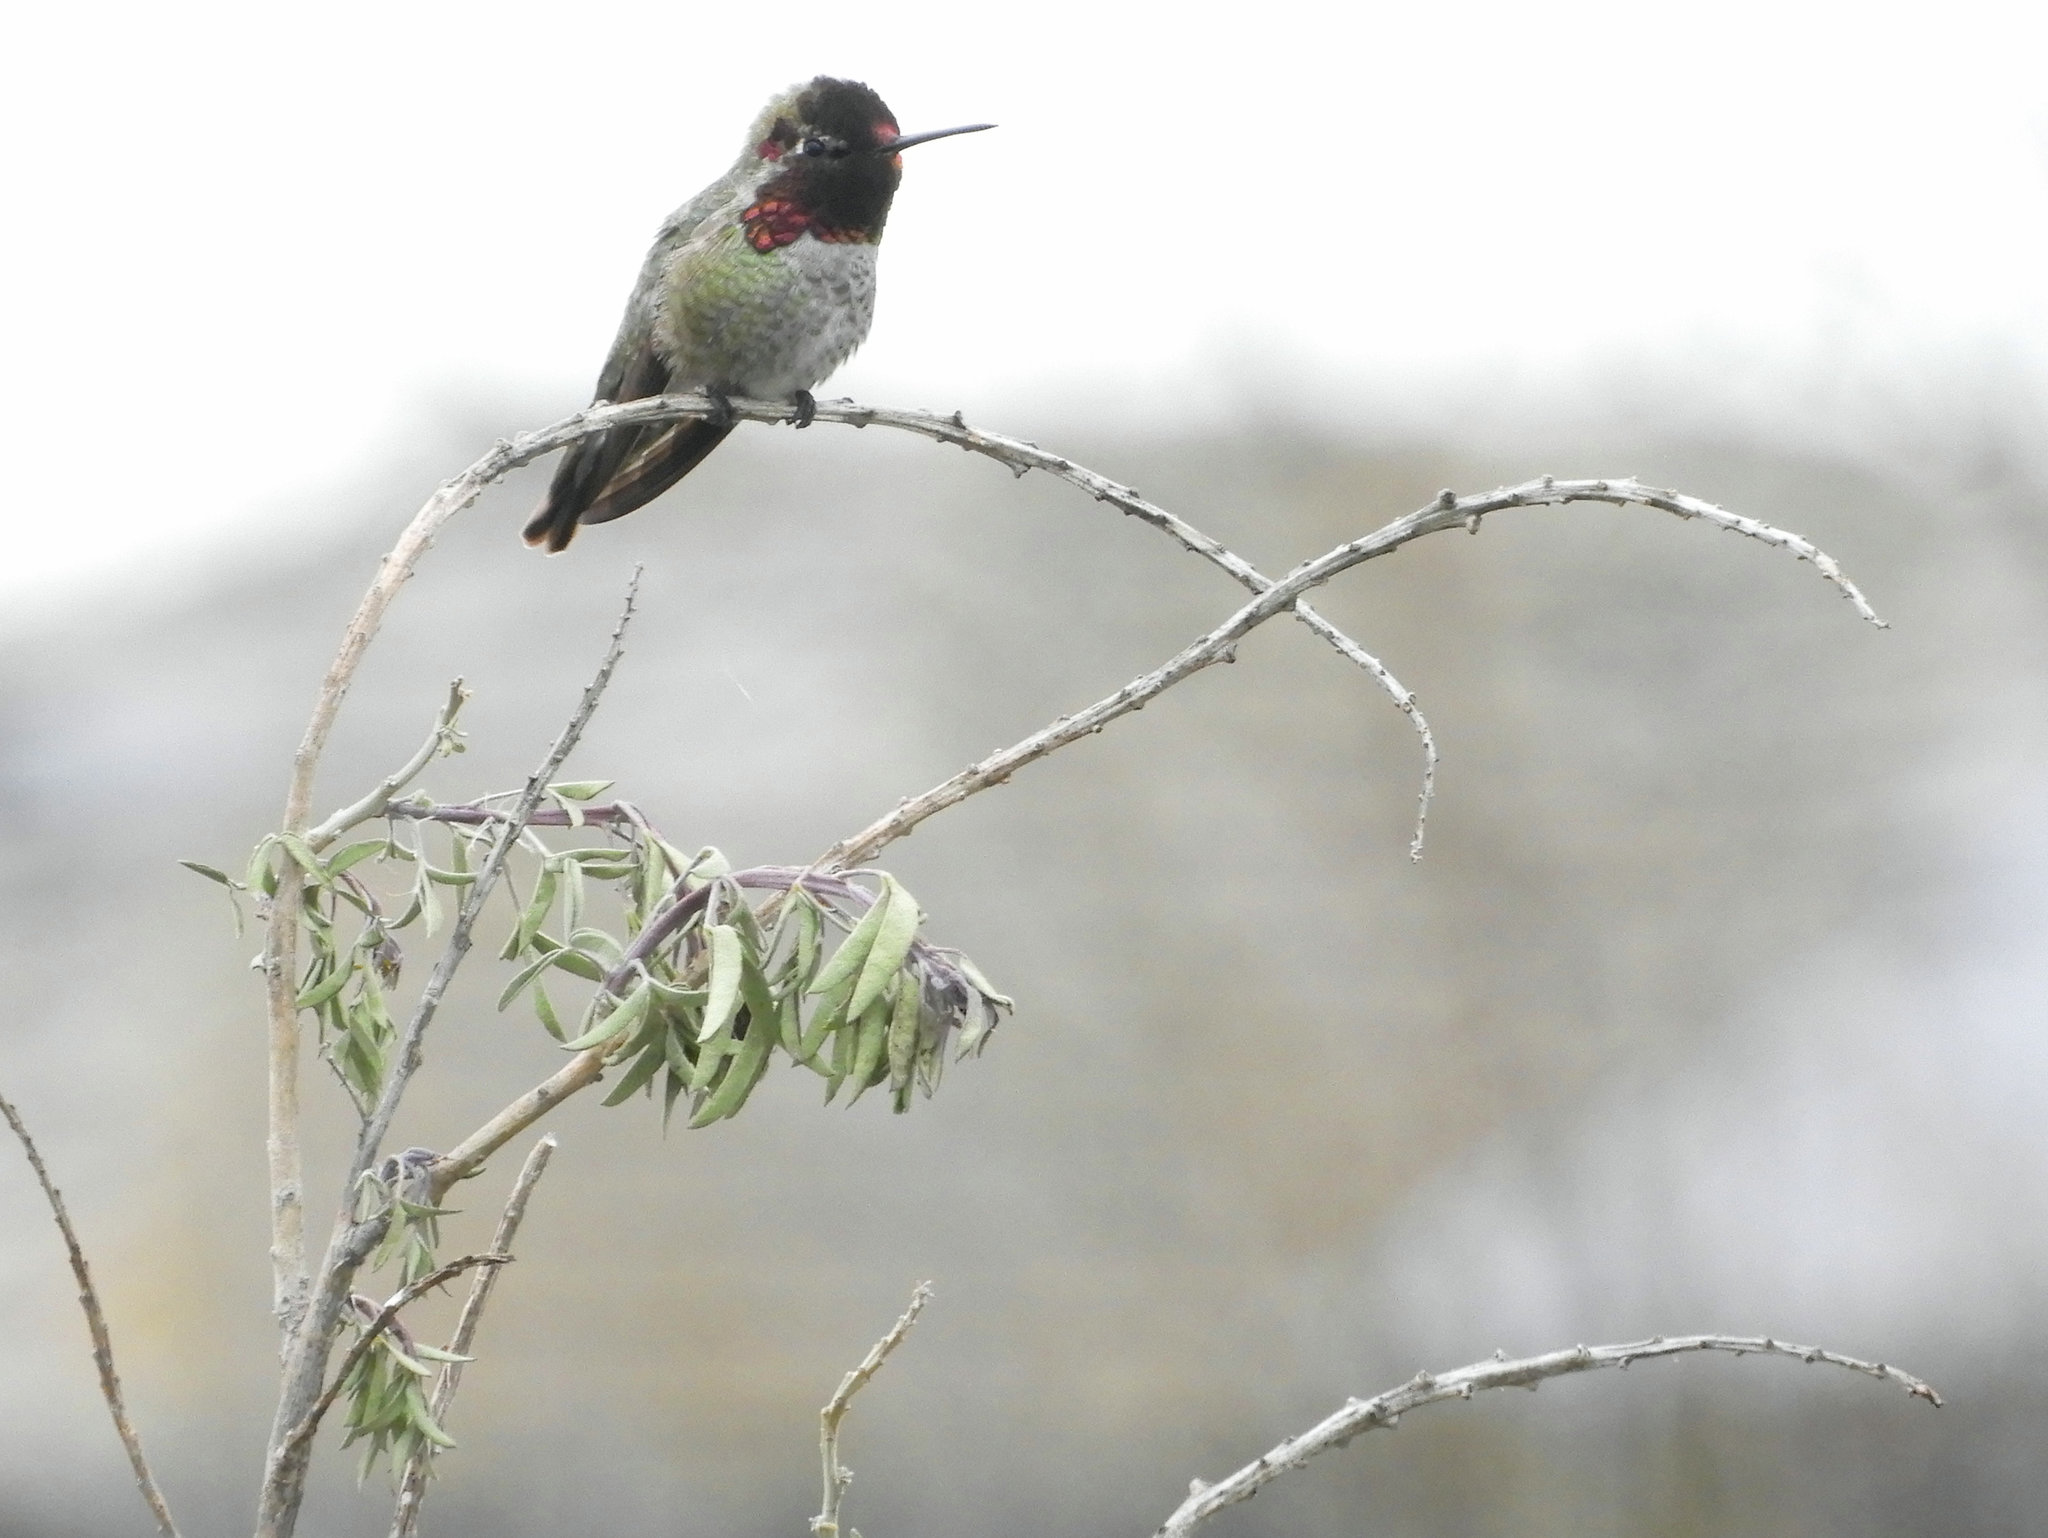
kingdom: Animalia
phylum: Chordata
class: Aves
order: Apodiformes
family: Trochilidae
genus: Calypte
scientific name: Calypte anna
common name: Anna's hummingbird
